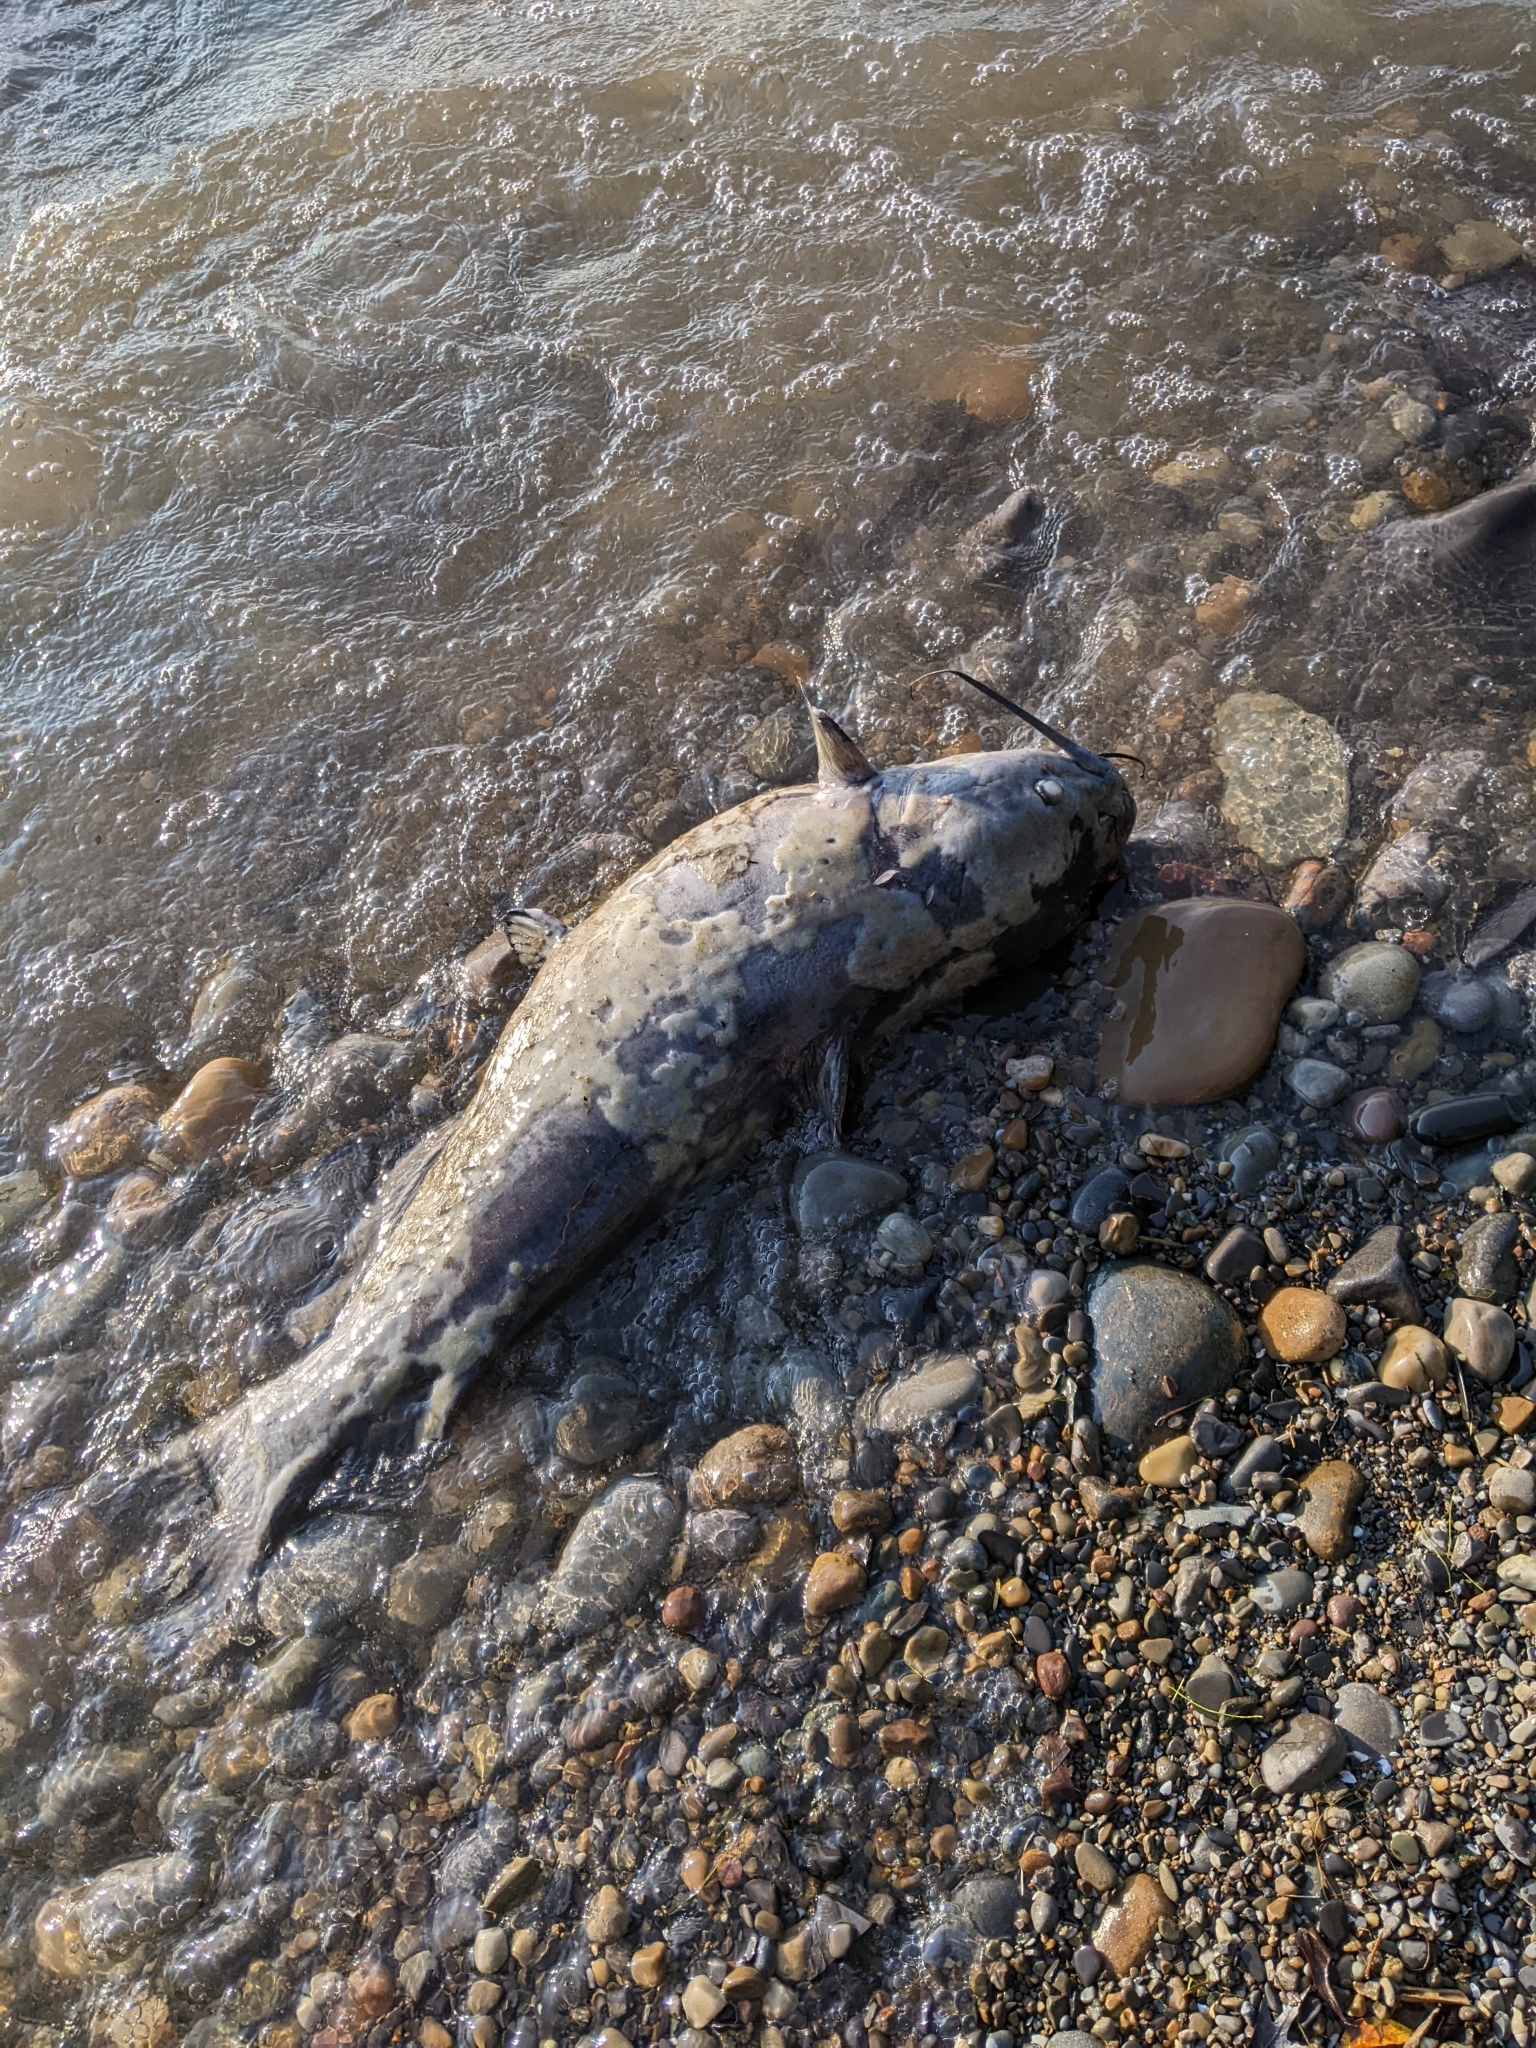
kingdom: Animalia
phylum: Chordata
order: Siluriformes
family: Ictaluridae
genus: Ictalurus
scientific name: Ictalurus punctatus
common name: Channel catfish
